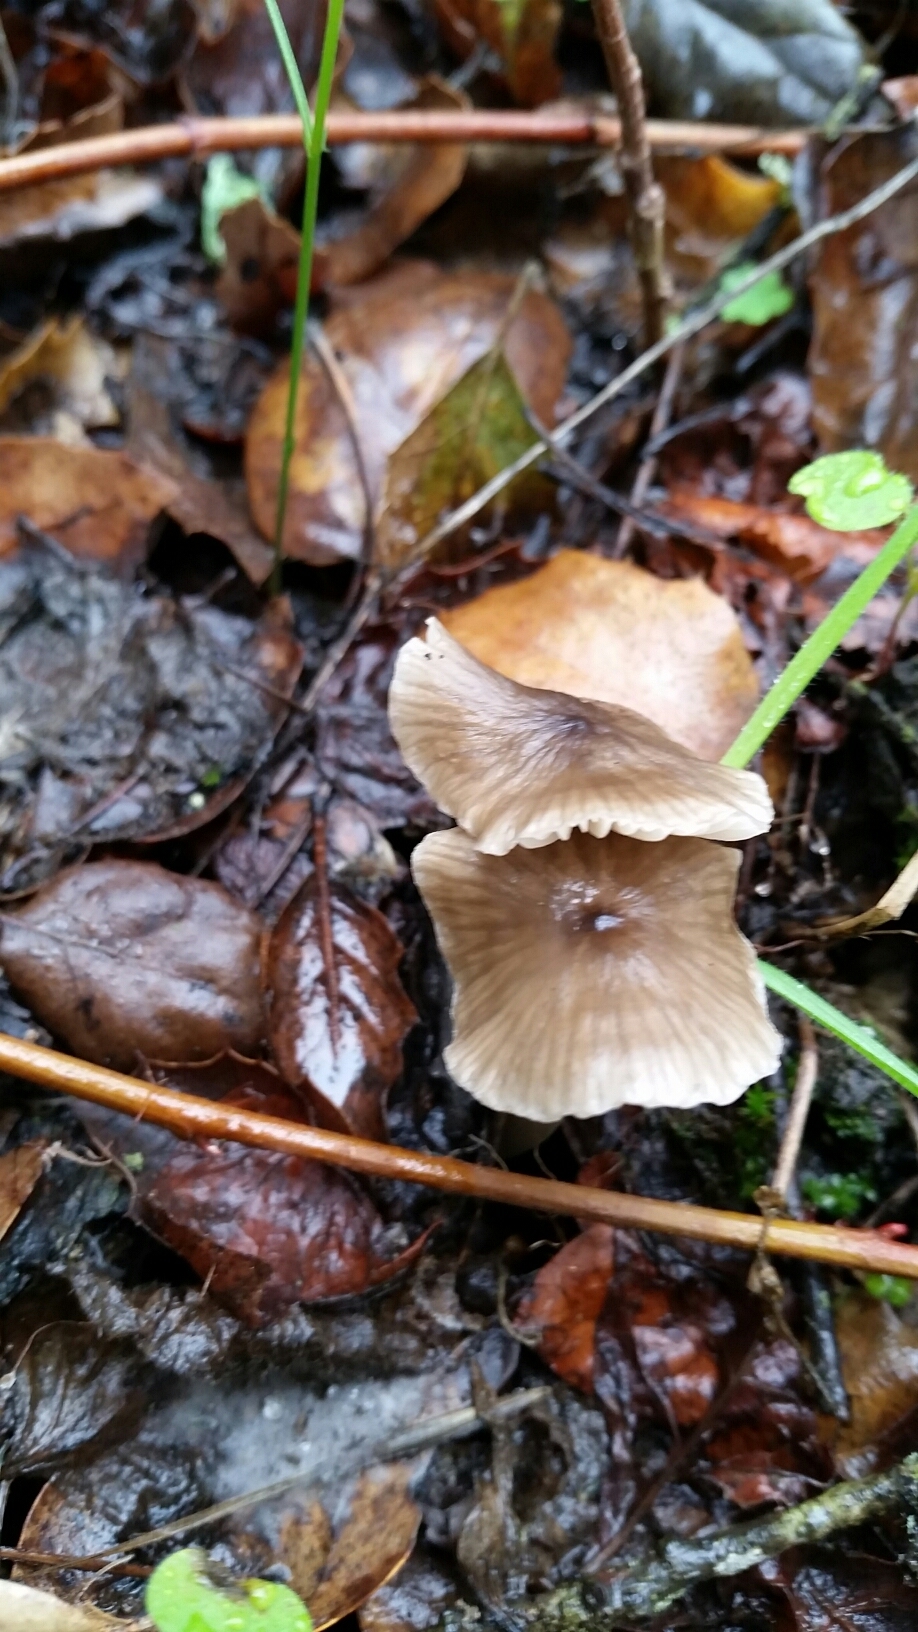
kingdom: Fungi
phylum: Basidiomycota
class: Agaricomycetes
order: Agaricales
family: Mycenaceae
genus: Mycena
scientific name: Mycena galericulata
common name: Bonnet mycena
